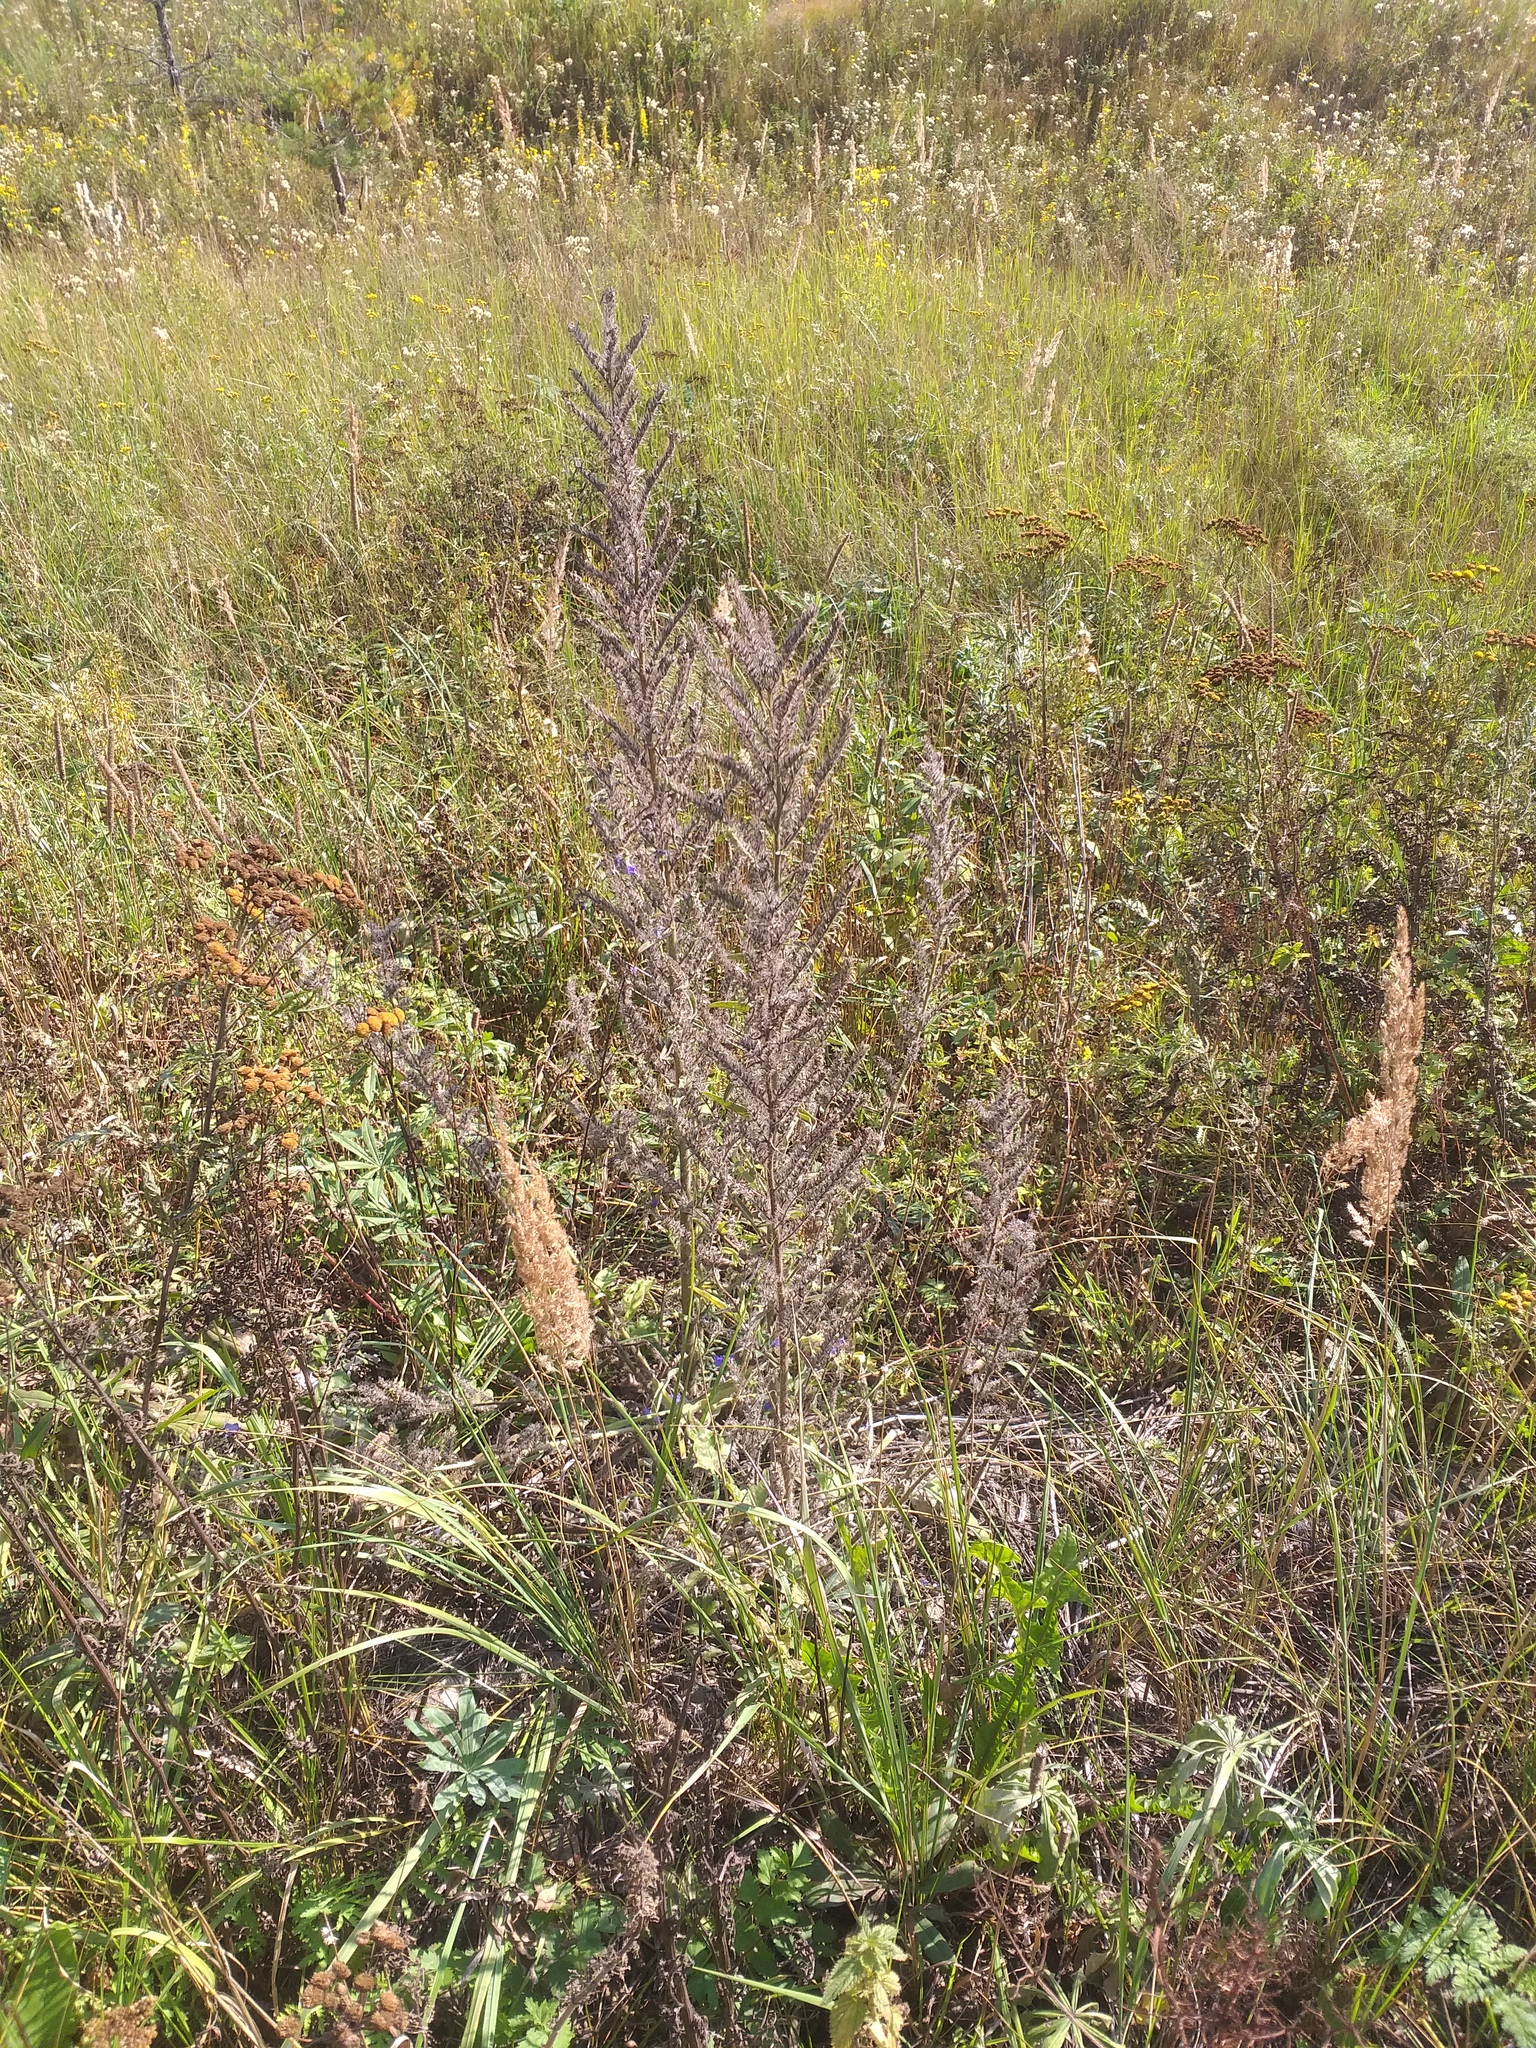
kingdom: Plantae
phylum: Tracheophyta
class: Magnoliopsida
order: Boraginales
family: Boraginaceae
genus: Echium
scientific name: Echium vulgare
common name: Common viper's bugloss
